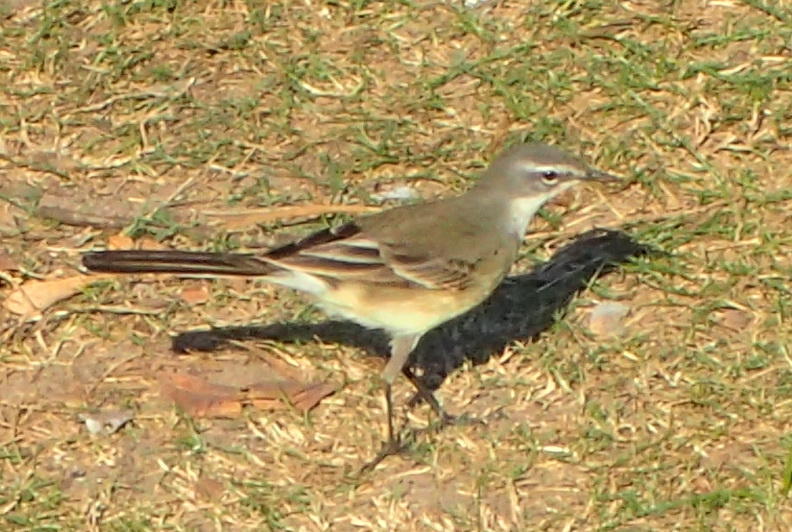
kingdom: Animalia
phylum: Chordata
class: Aves
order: Passeriformes
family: Motacillidae
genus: Motacilla
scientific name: Motacilla capensis
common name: Cape wagtail
